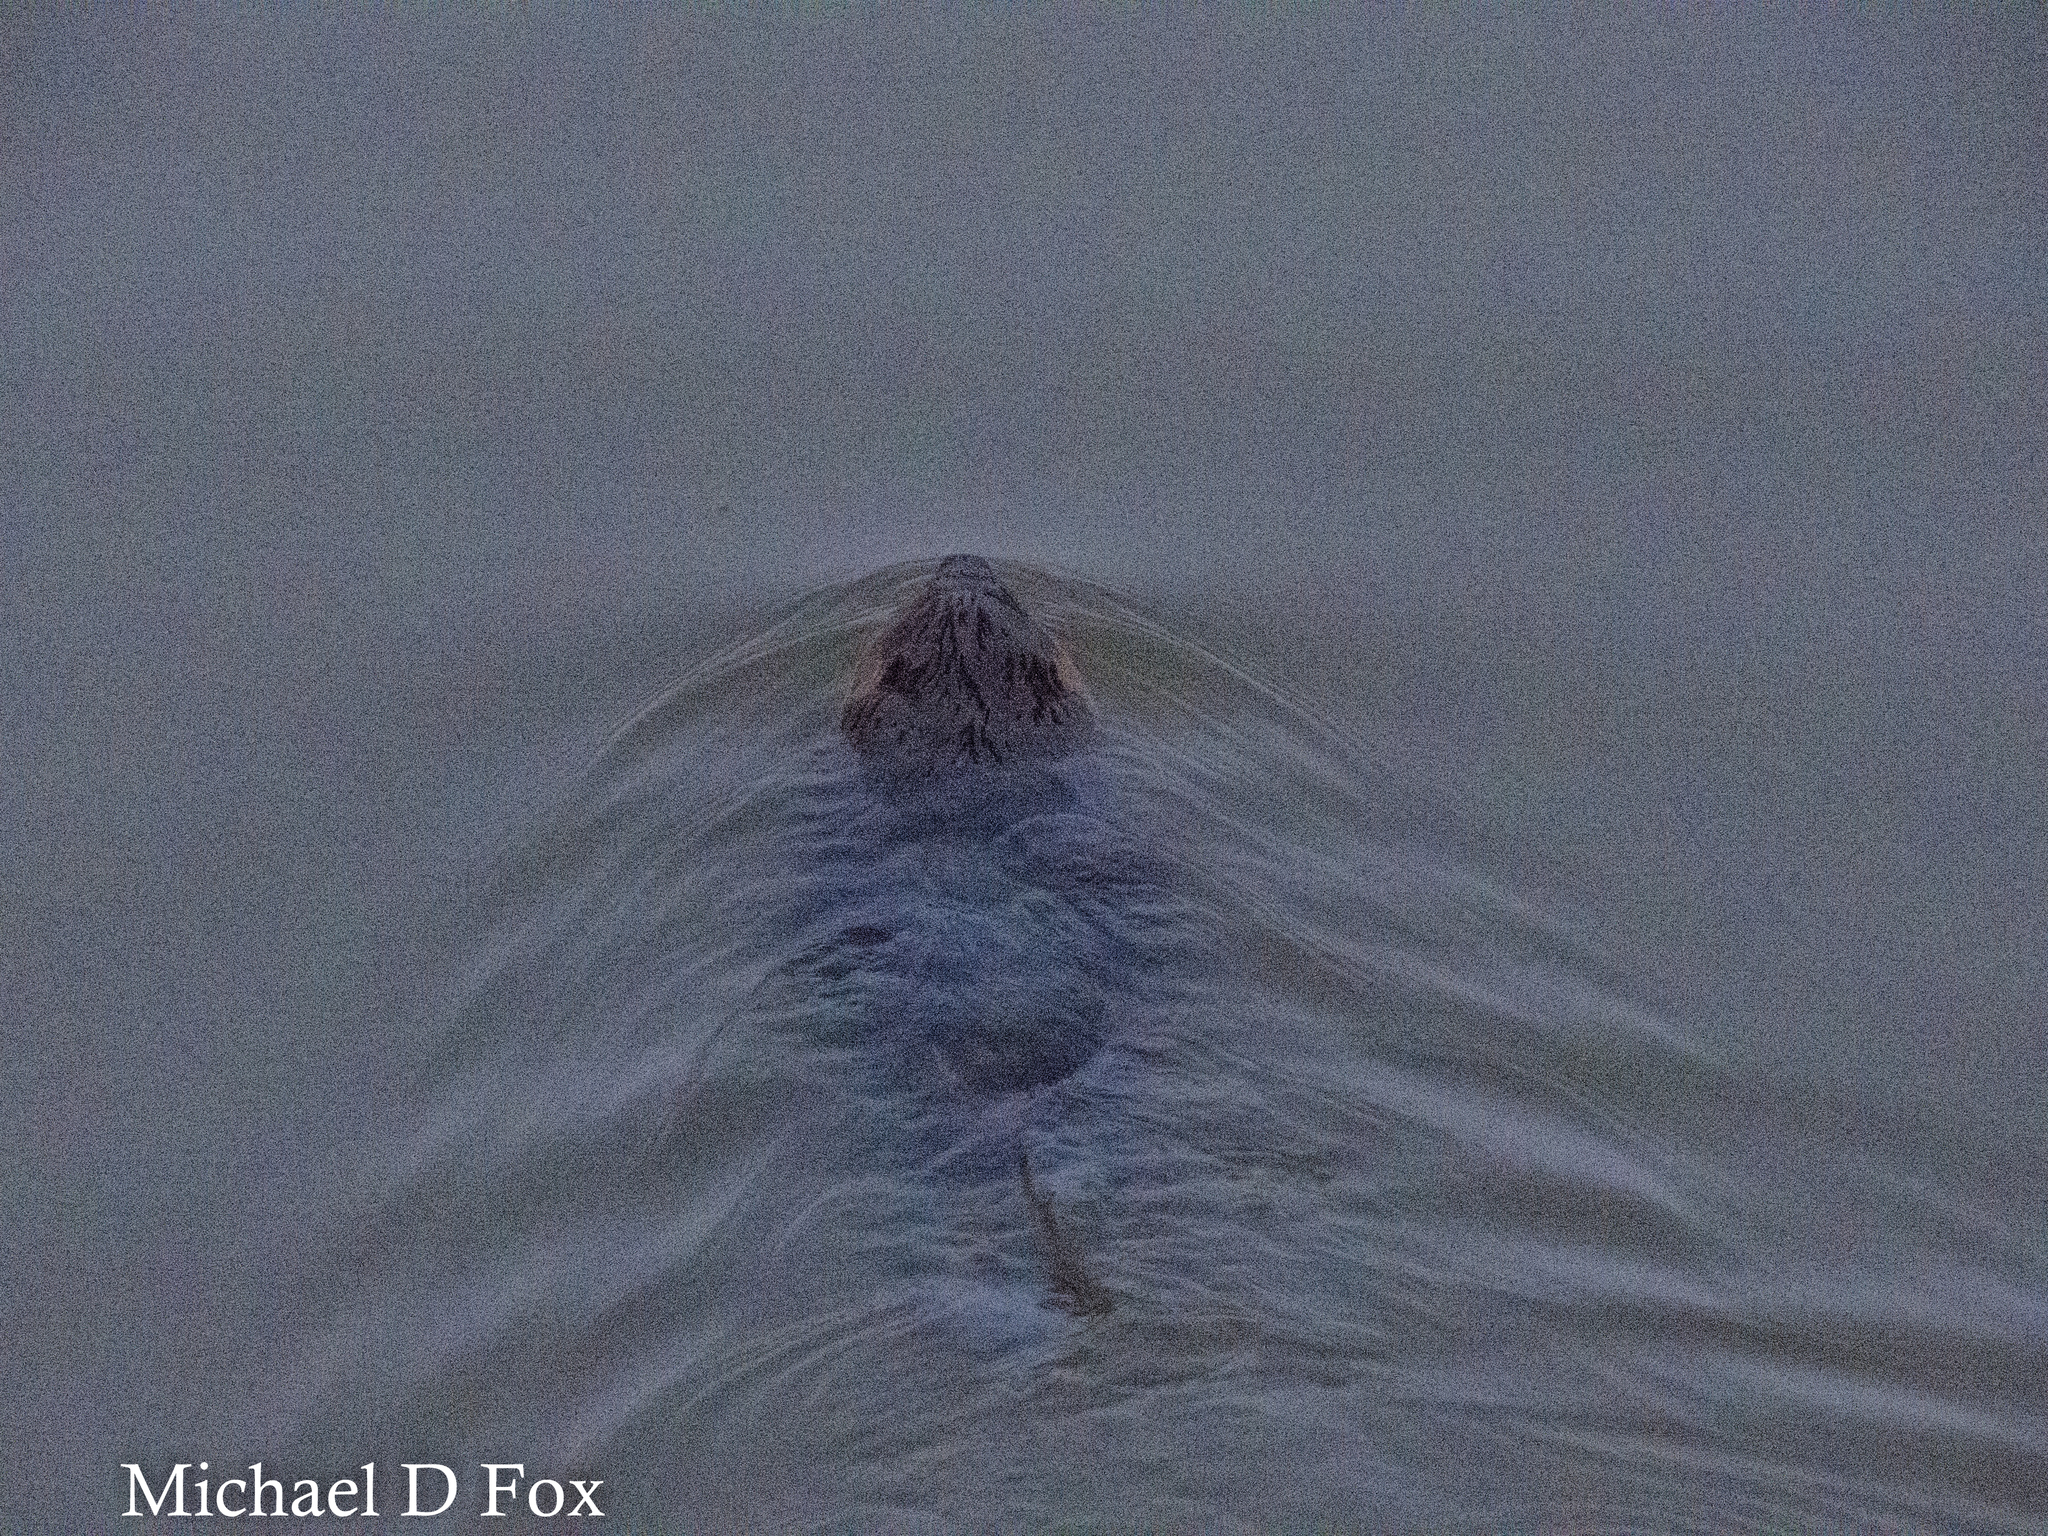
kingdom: Animalia
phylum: Chordata
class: Mammalia
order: Rodentia
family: Castoridae
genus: Castor
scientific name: Castor canadensis
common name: American beaver
